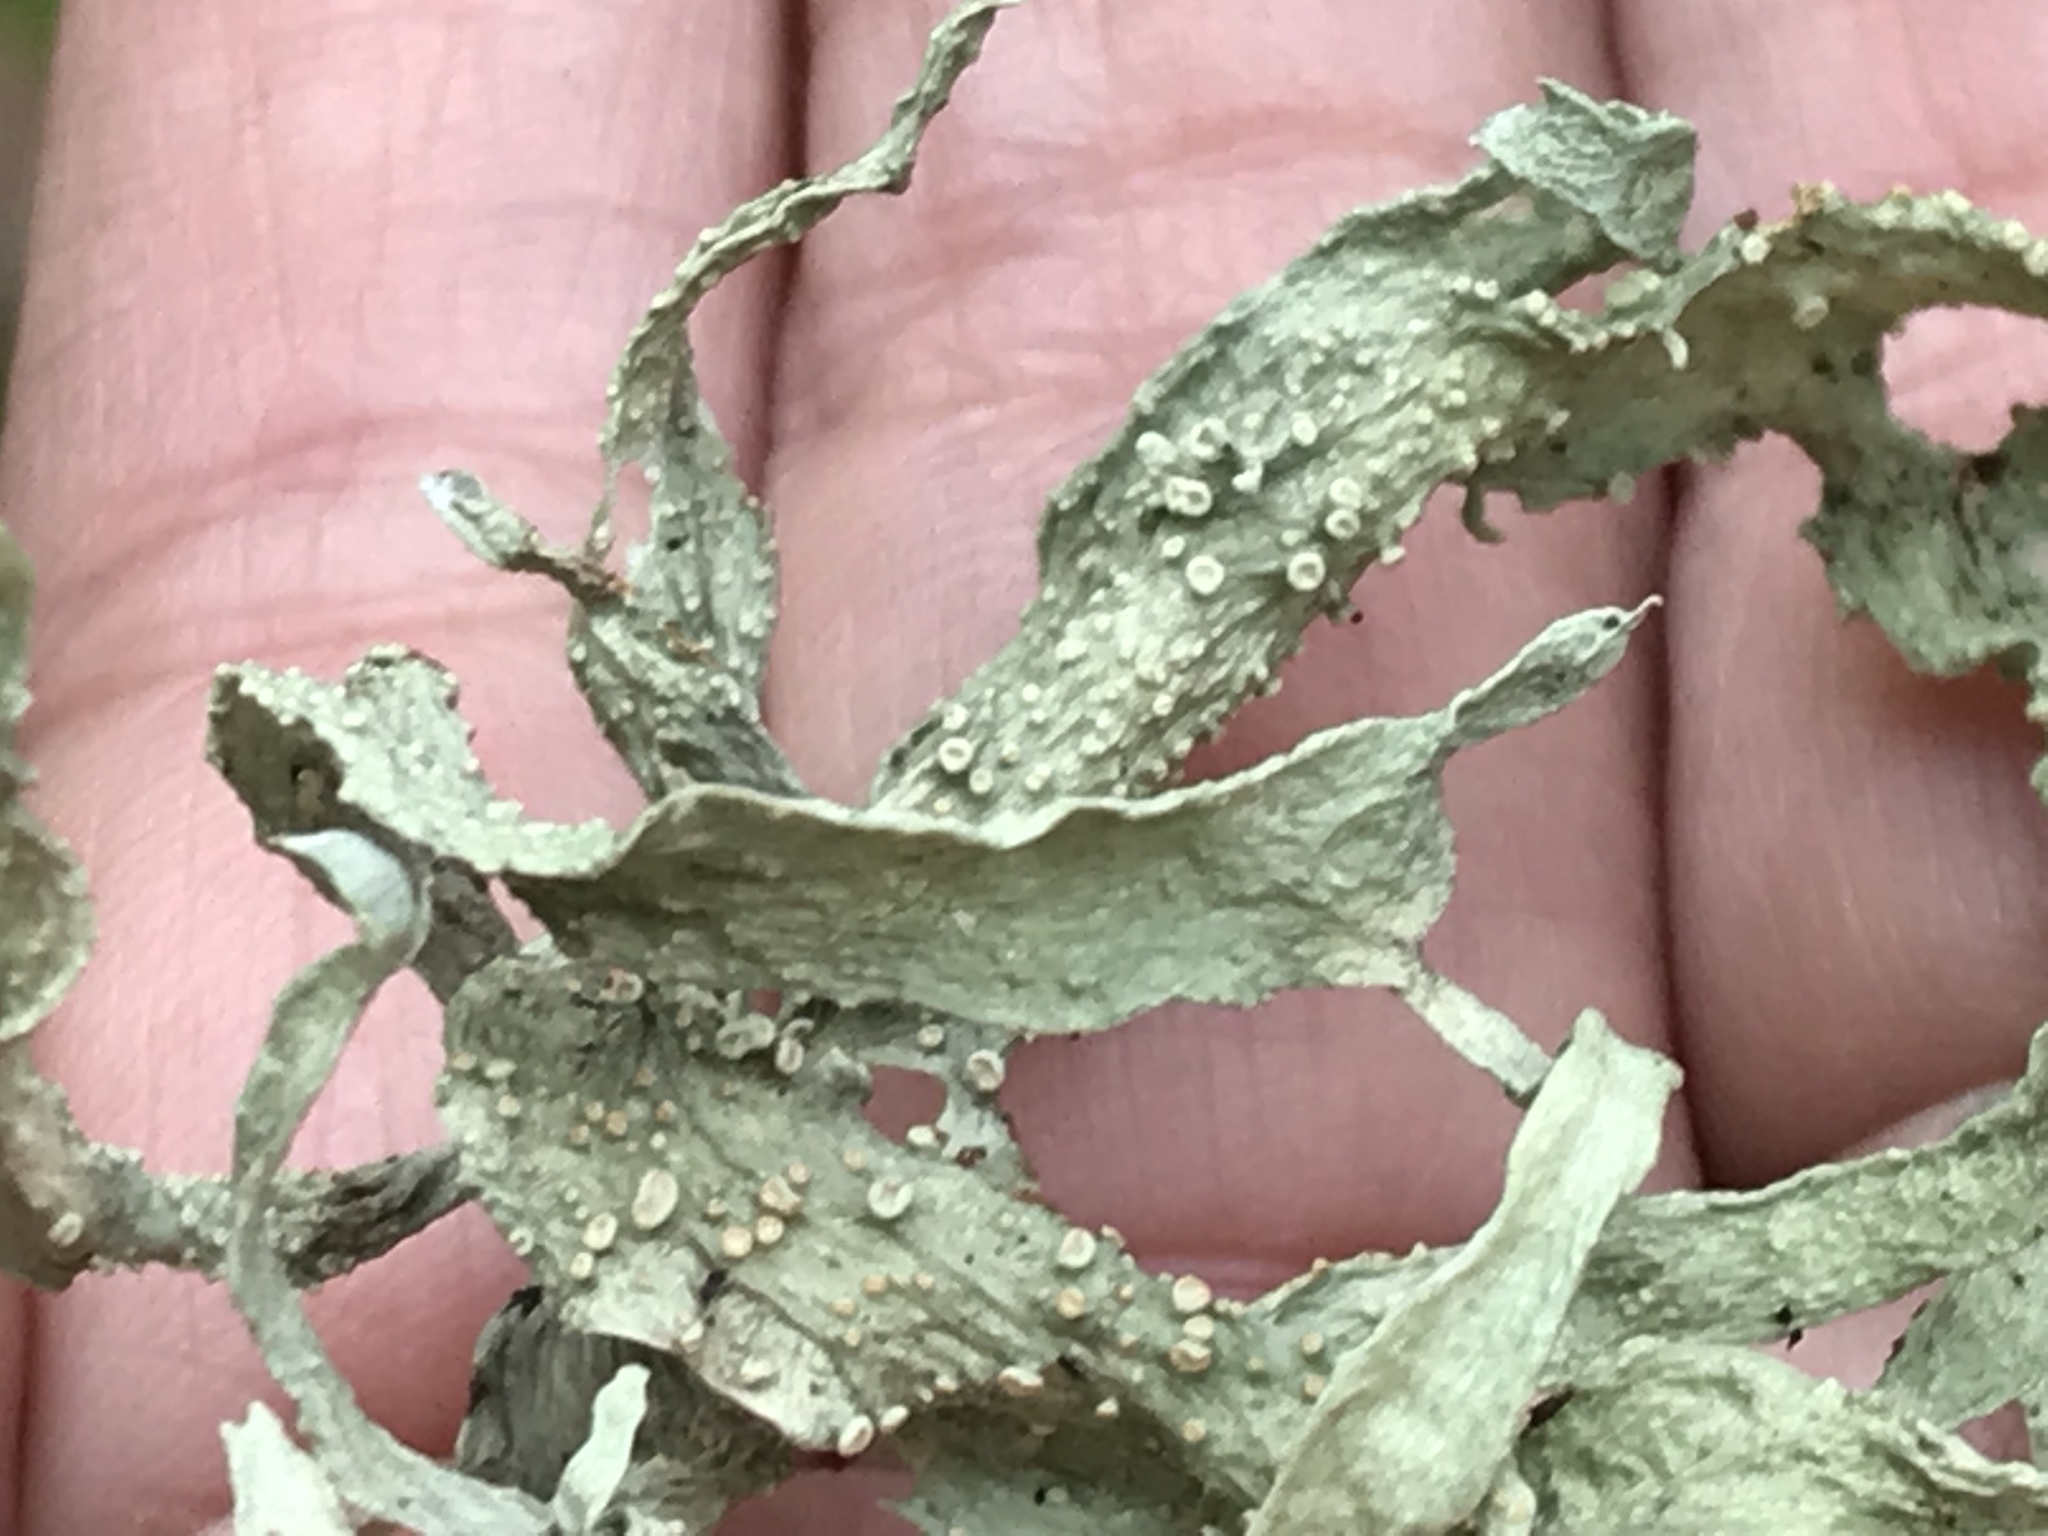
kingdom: Fungi
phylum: Ascomycota
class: Lecanoromycetes
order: Lecanorales
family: Ramalinaceae
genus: Ramalina
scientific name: Ramalina celastri
